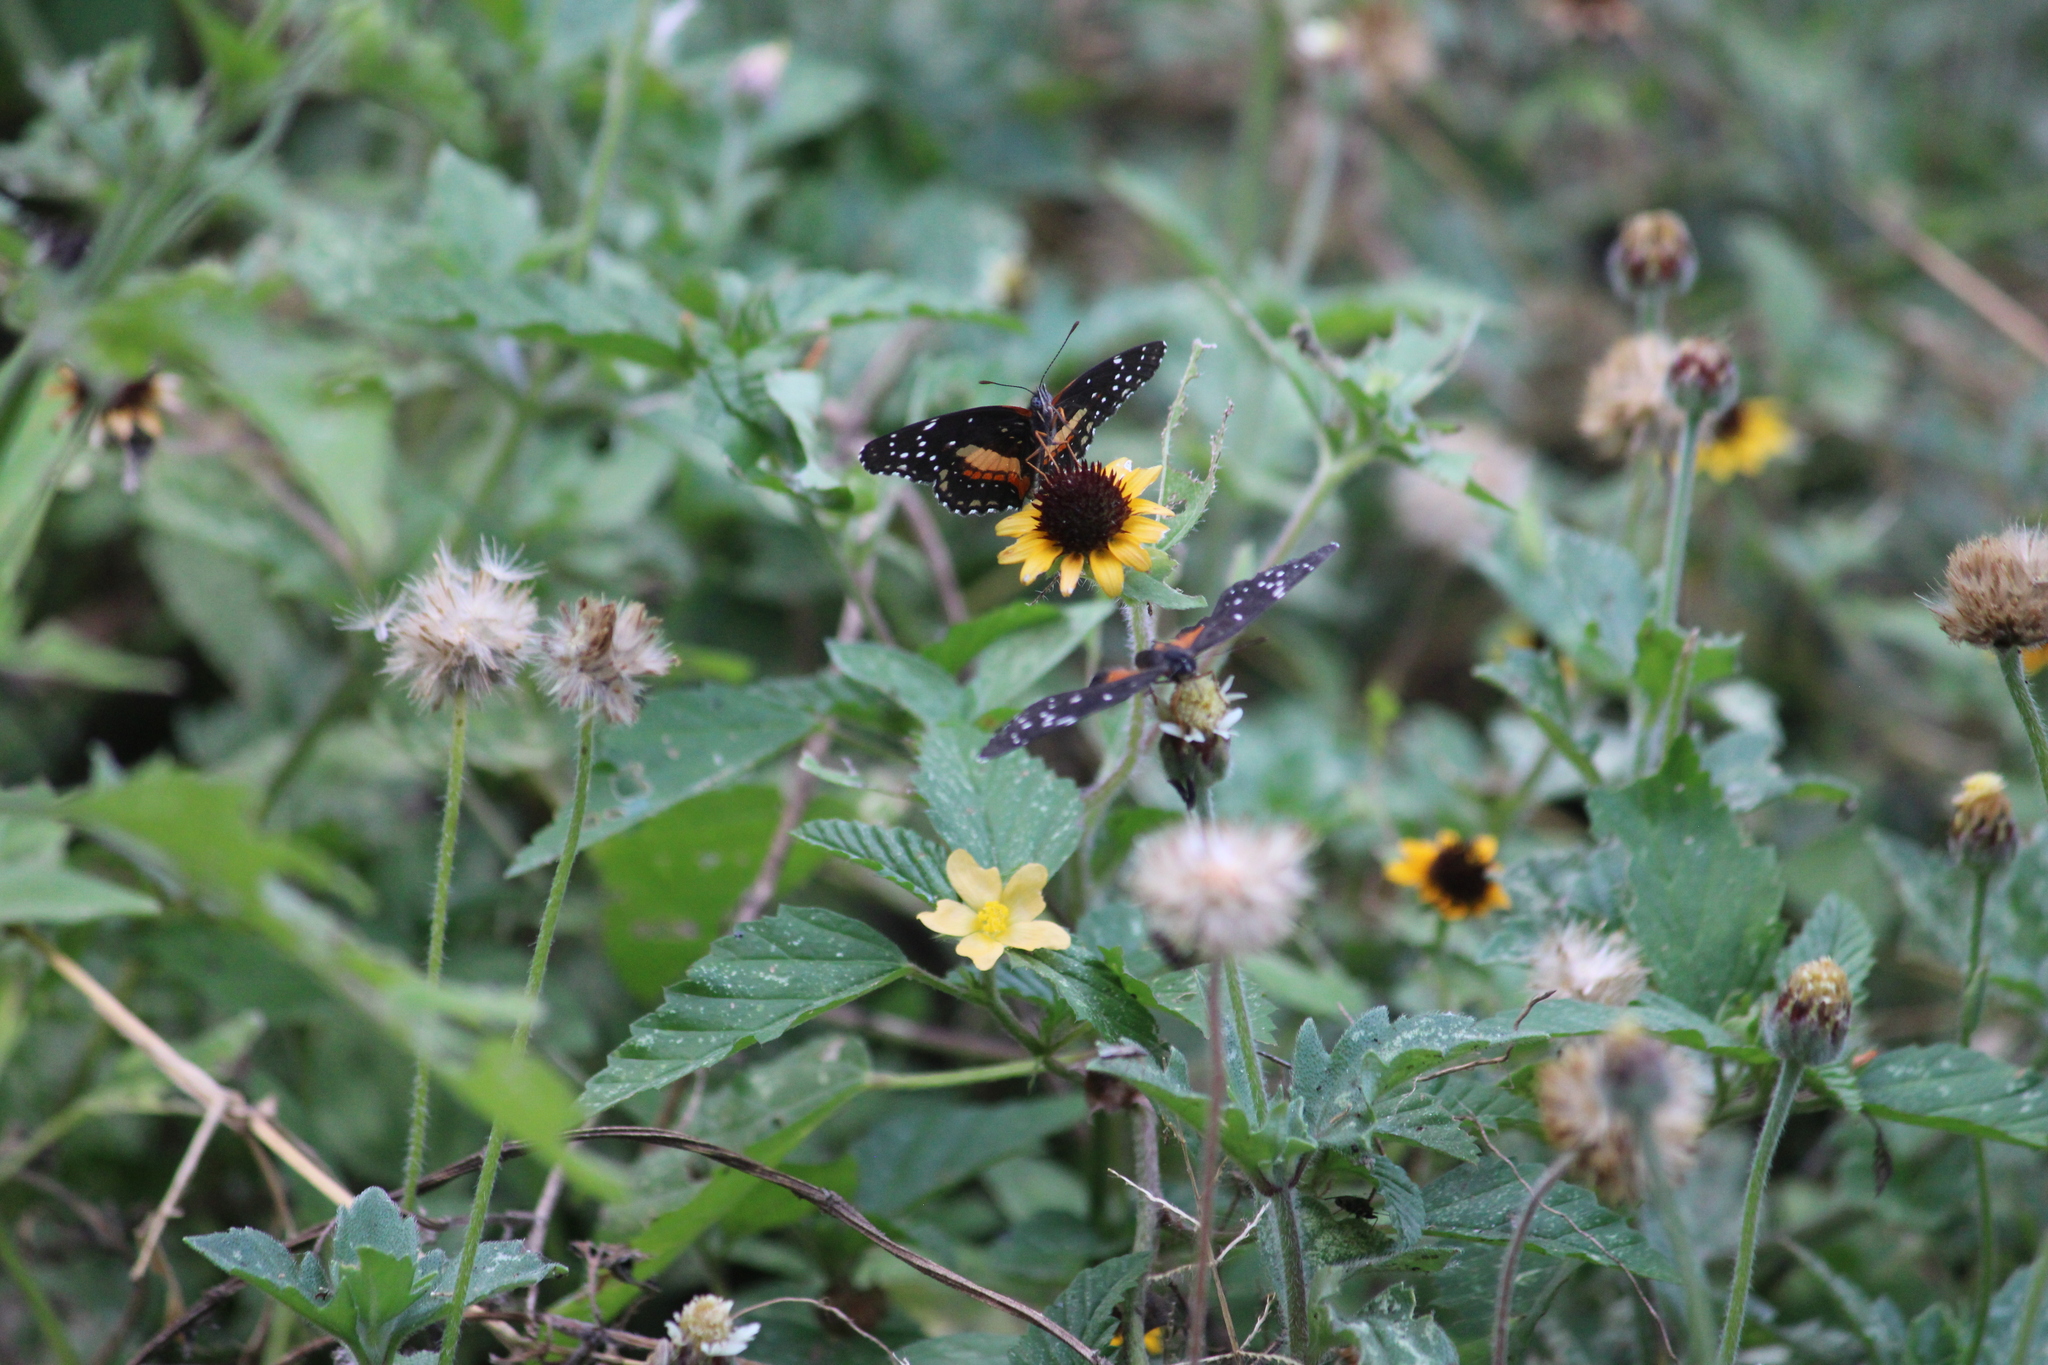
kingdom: Animalia
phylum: Arthropoda
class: Insecta
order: Lepidoptera
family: Nymphalidae
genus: Chlosyne
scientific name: Chlosyne lacinia
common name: Bordered patch
